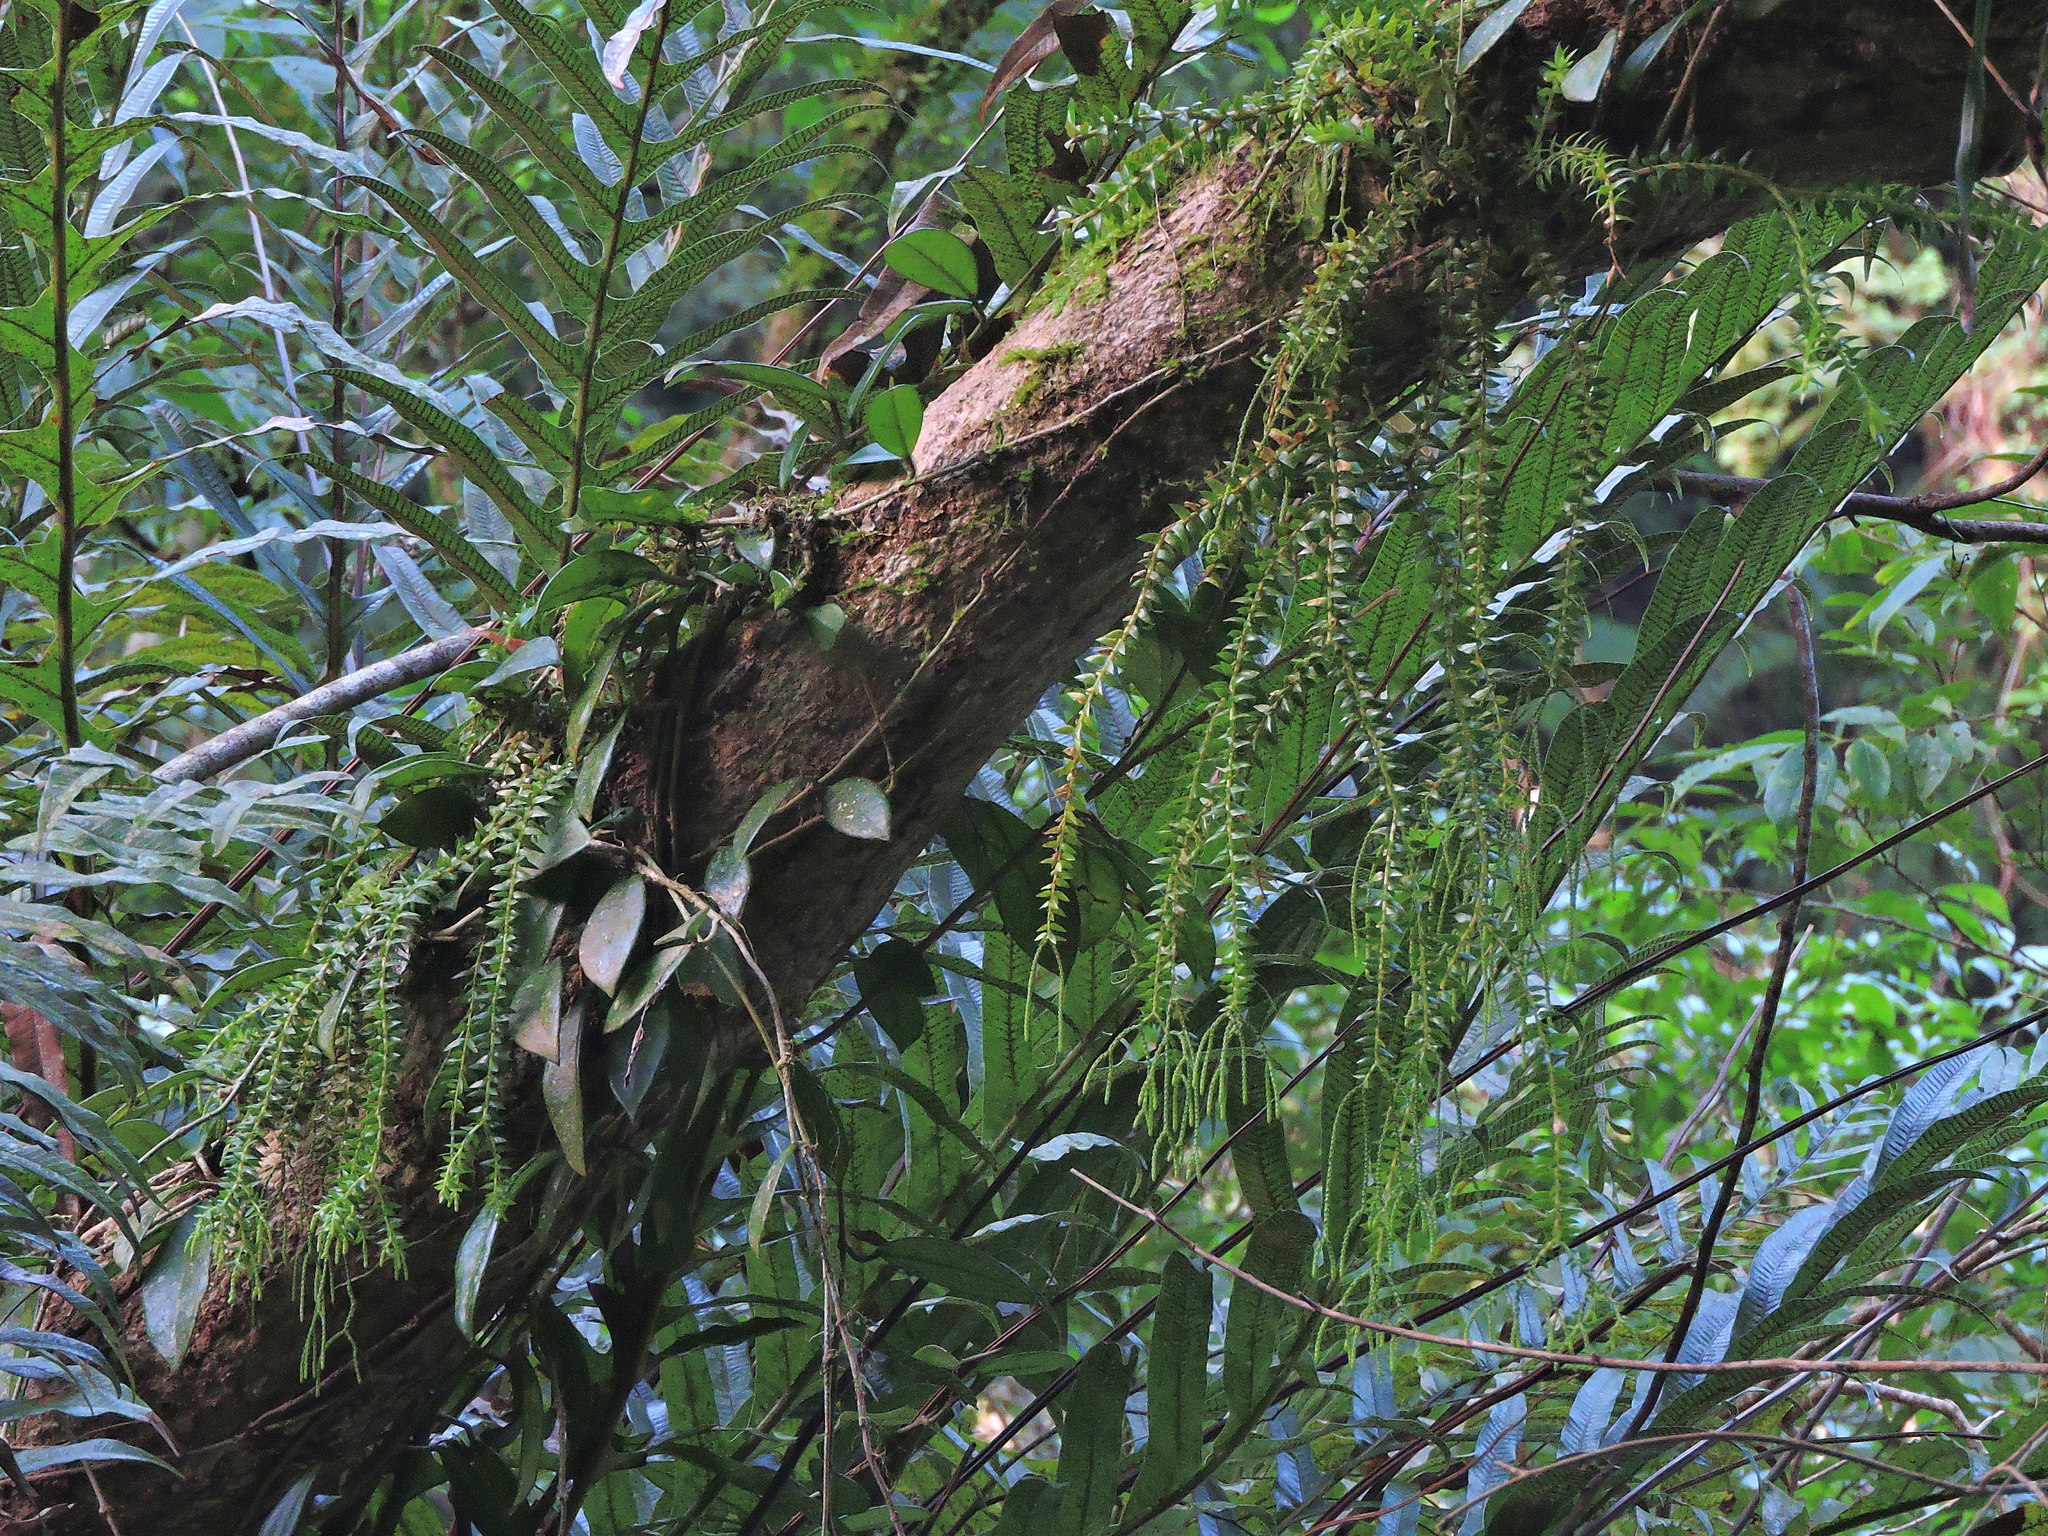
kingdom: Plantae
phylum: Tracheophyta
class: Lycopodiopsida
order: Lycopodiales
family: Lycopodiaceae
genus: Phlegmariurus
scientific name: Phlegmariurus phlegmaria
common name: Coarse tassel-fern
